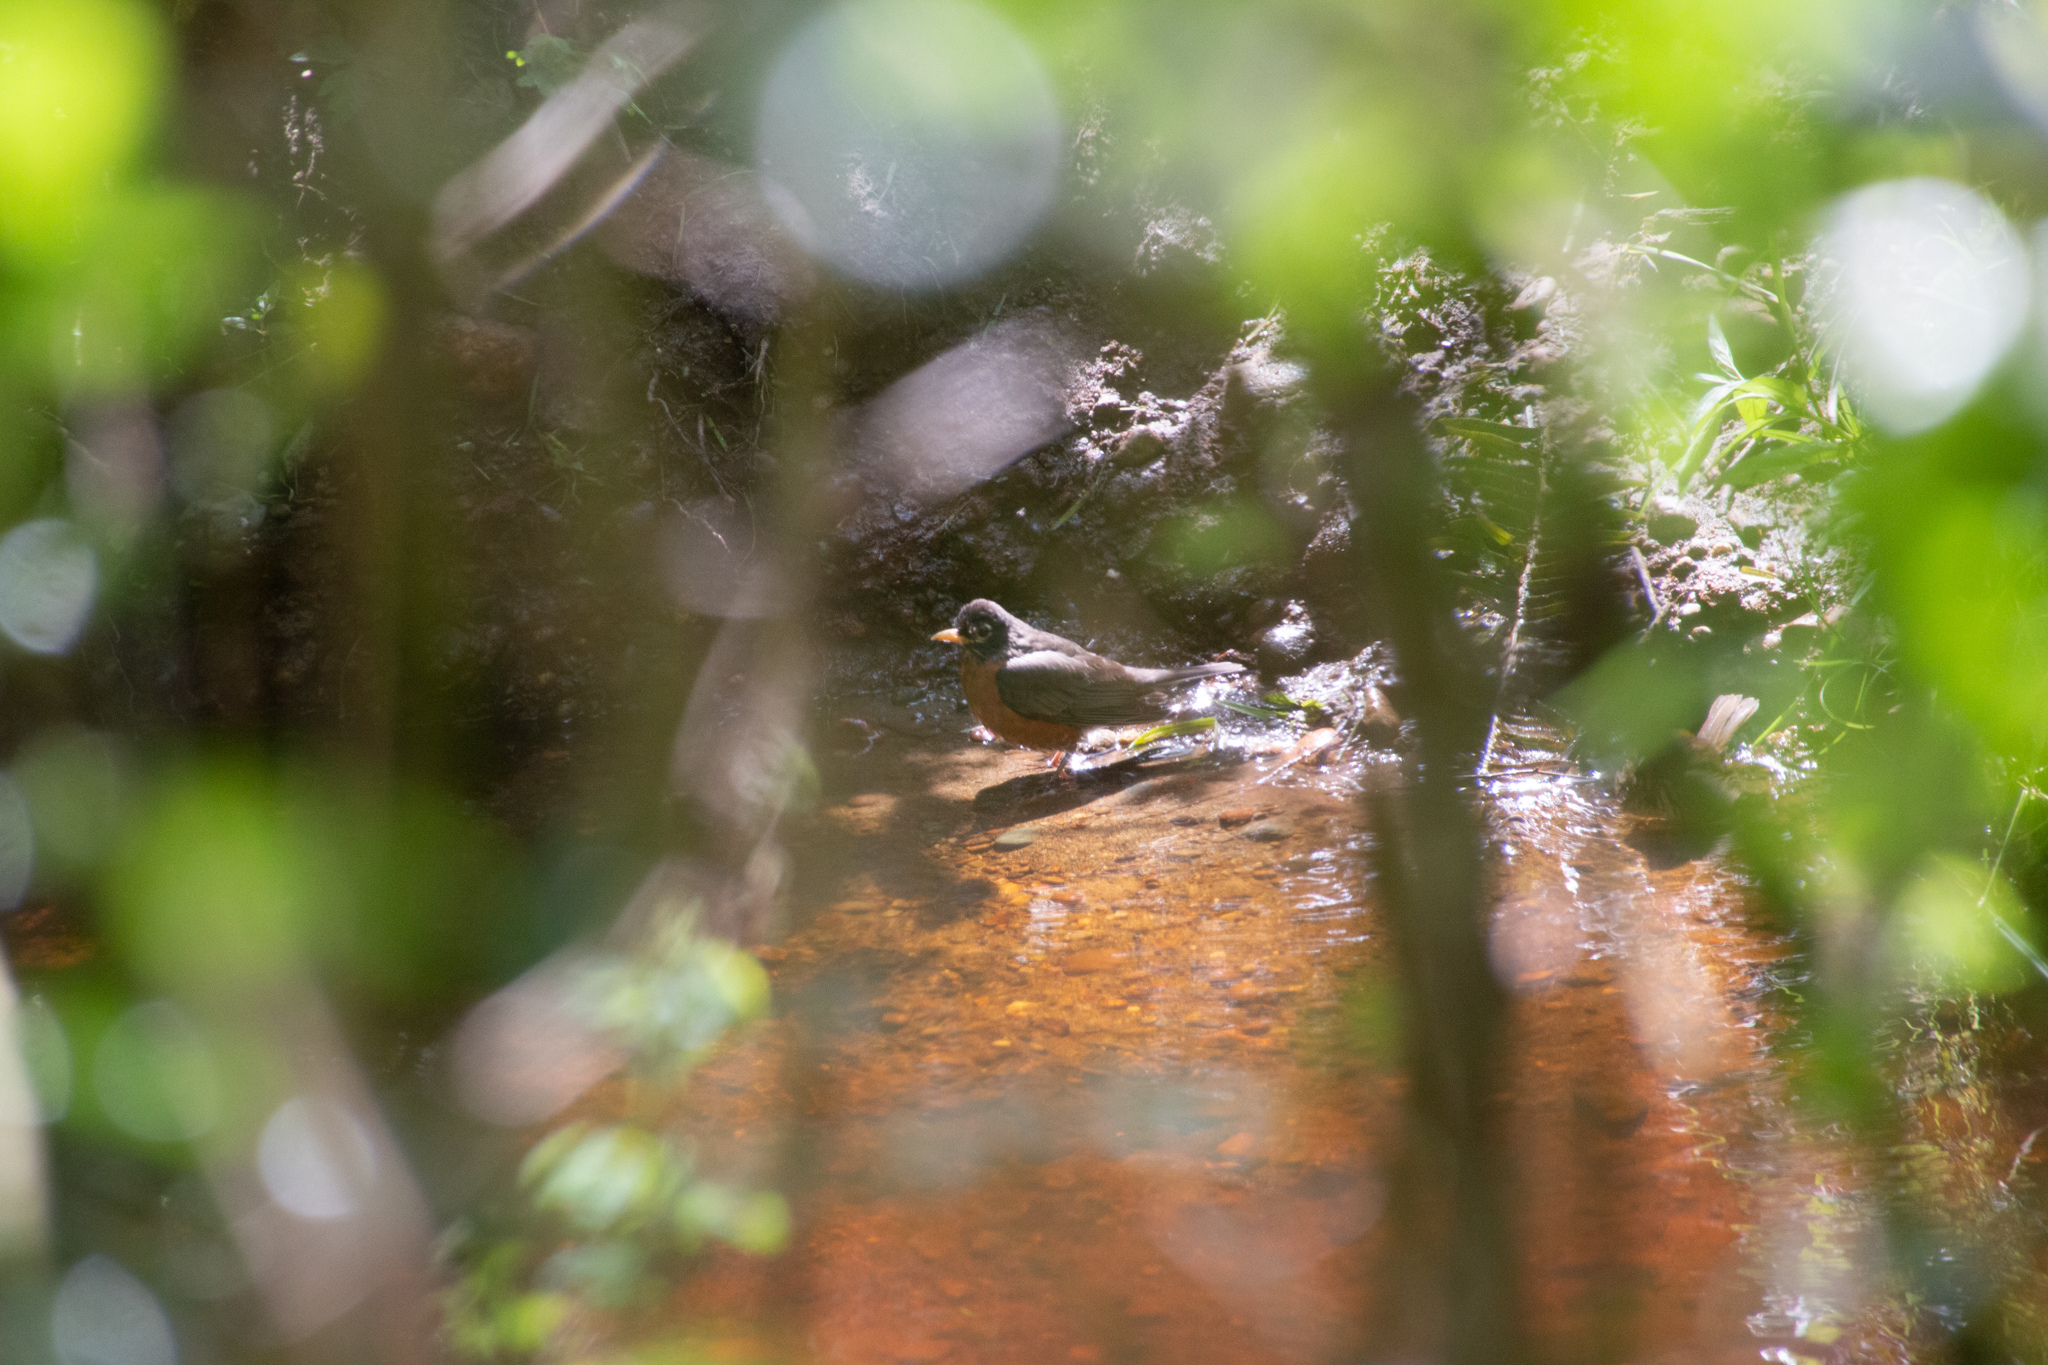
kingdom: Animalia
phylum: Chordata
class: Aves
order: Passeriformes
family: Turdidae
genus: Turdus
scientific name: Turdus migratorius
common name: American robin
